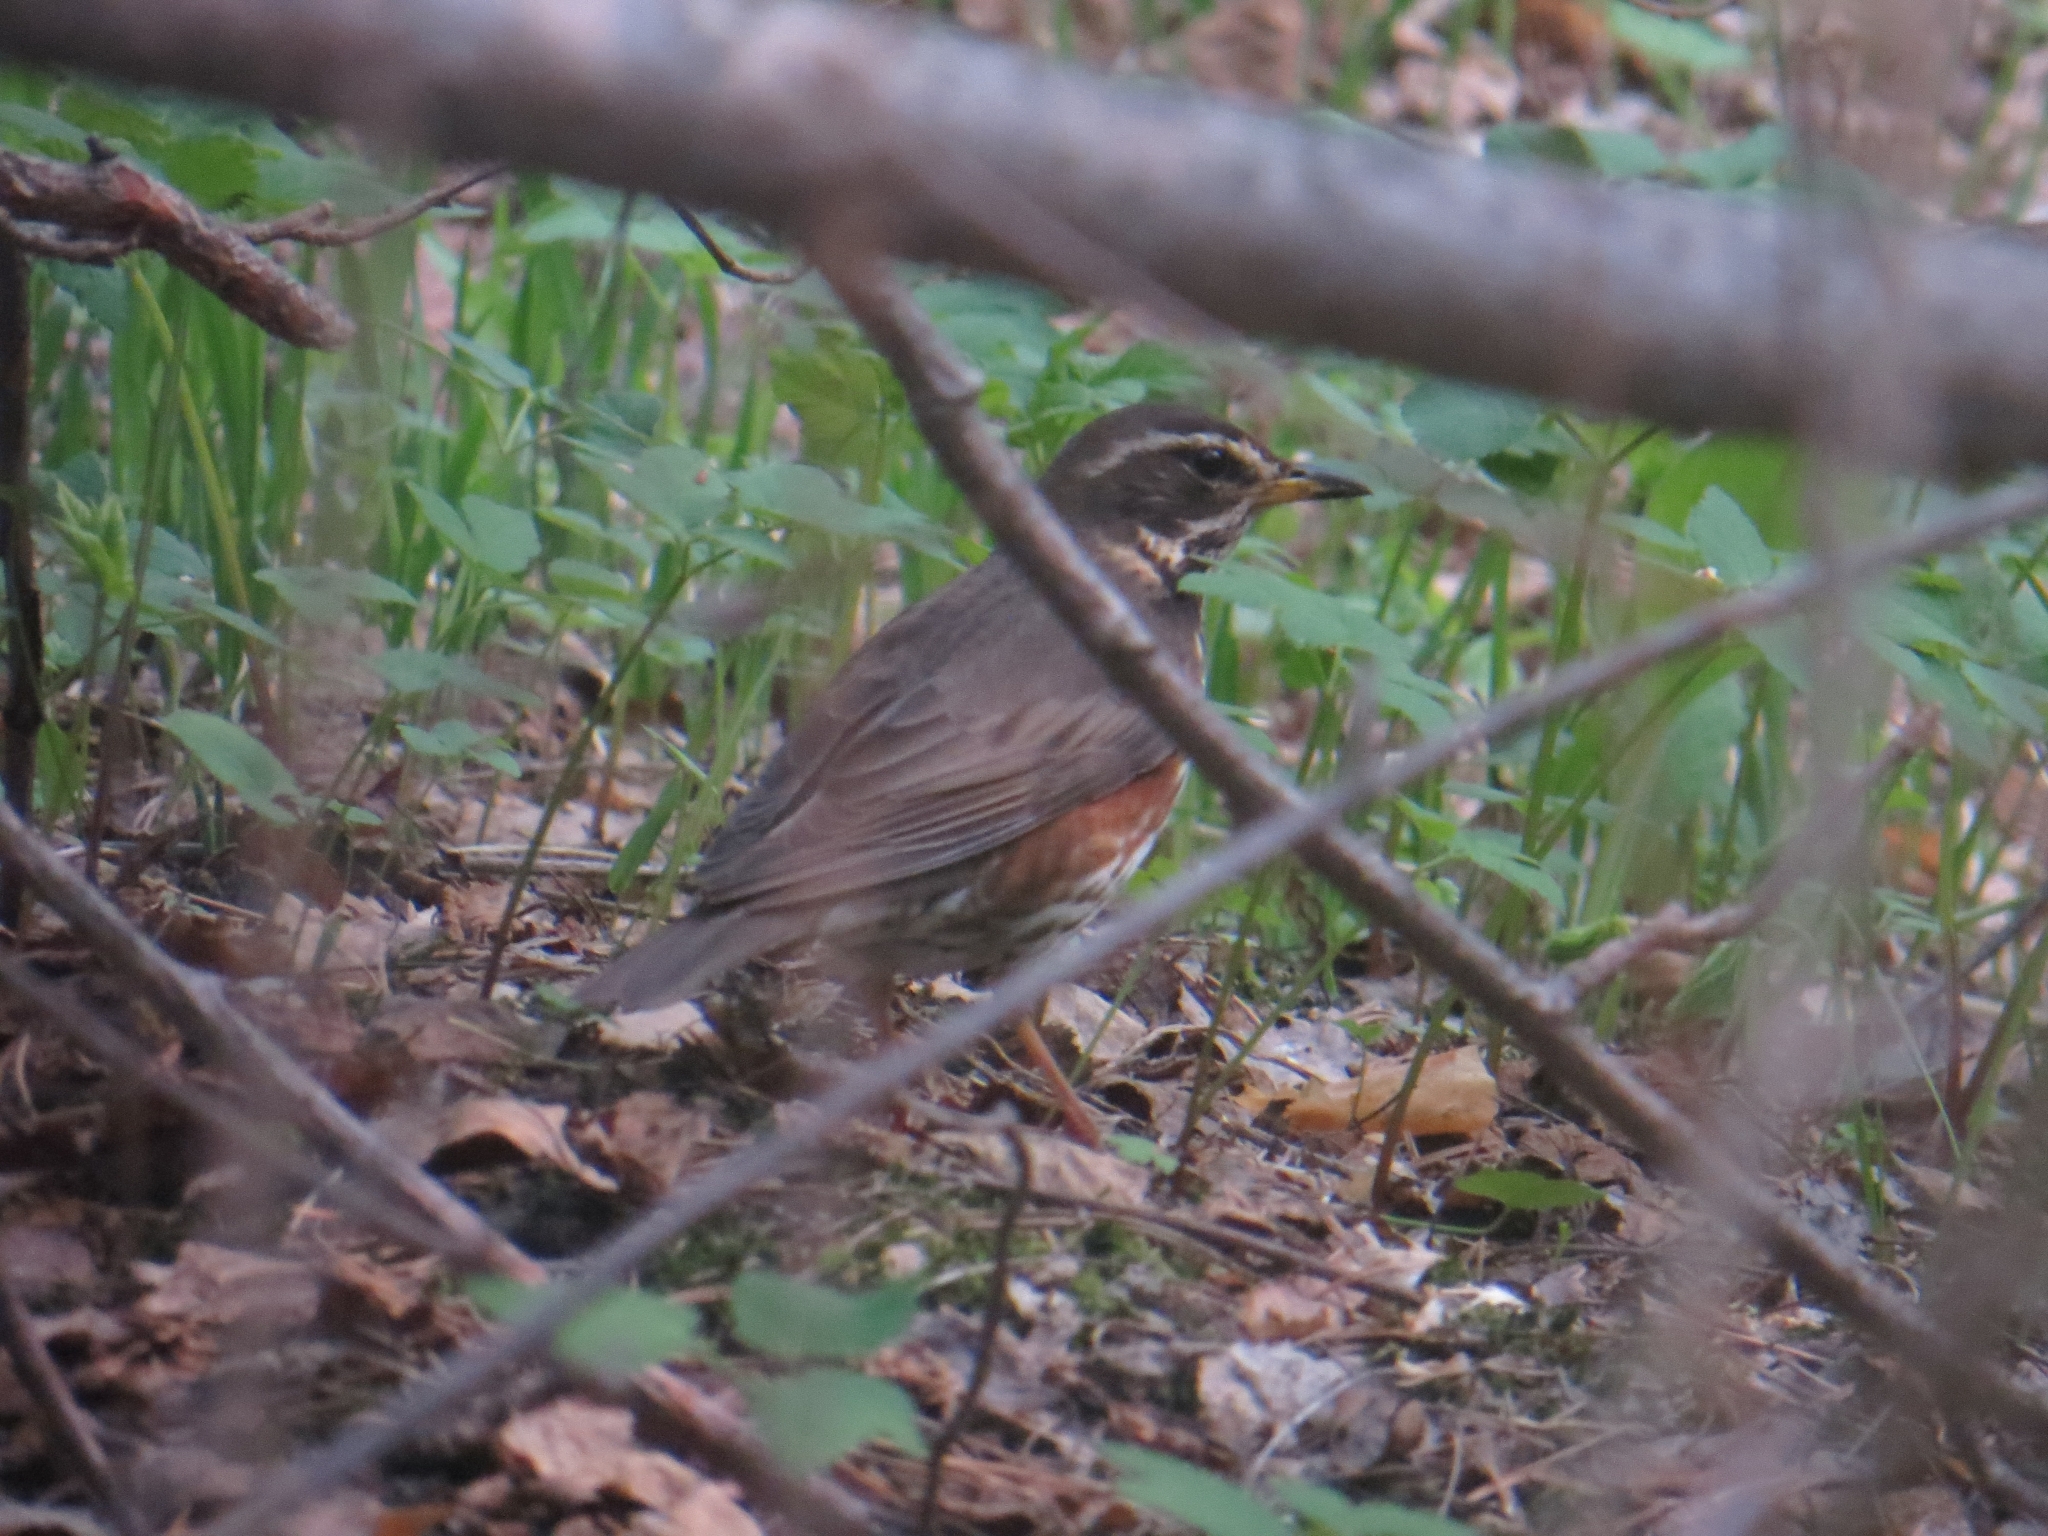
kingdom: Animalia
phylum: Chordata
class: Aves
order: Passeriformes
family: Turdidae
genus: Turdus
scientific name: Turdus iliacus
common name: Redwing
